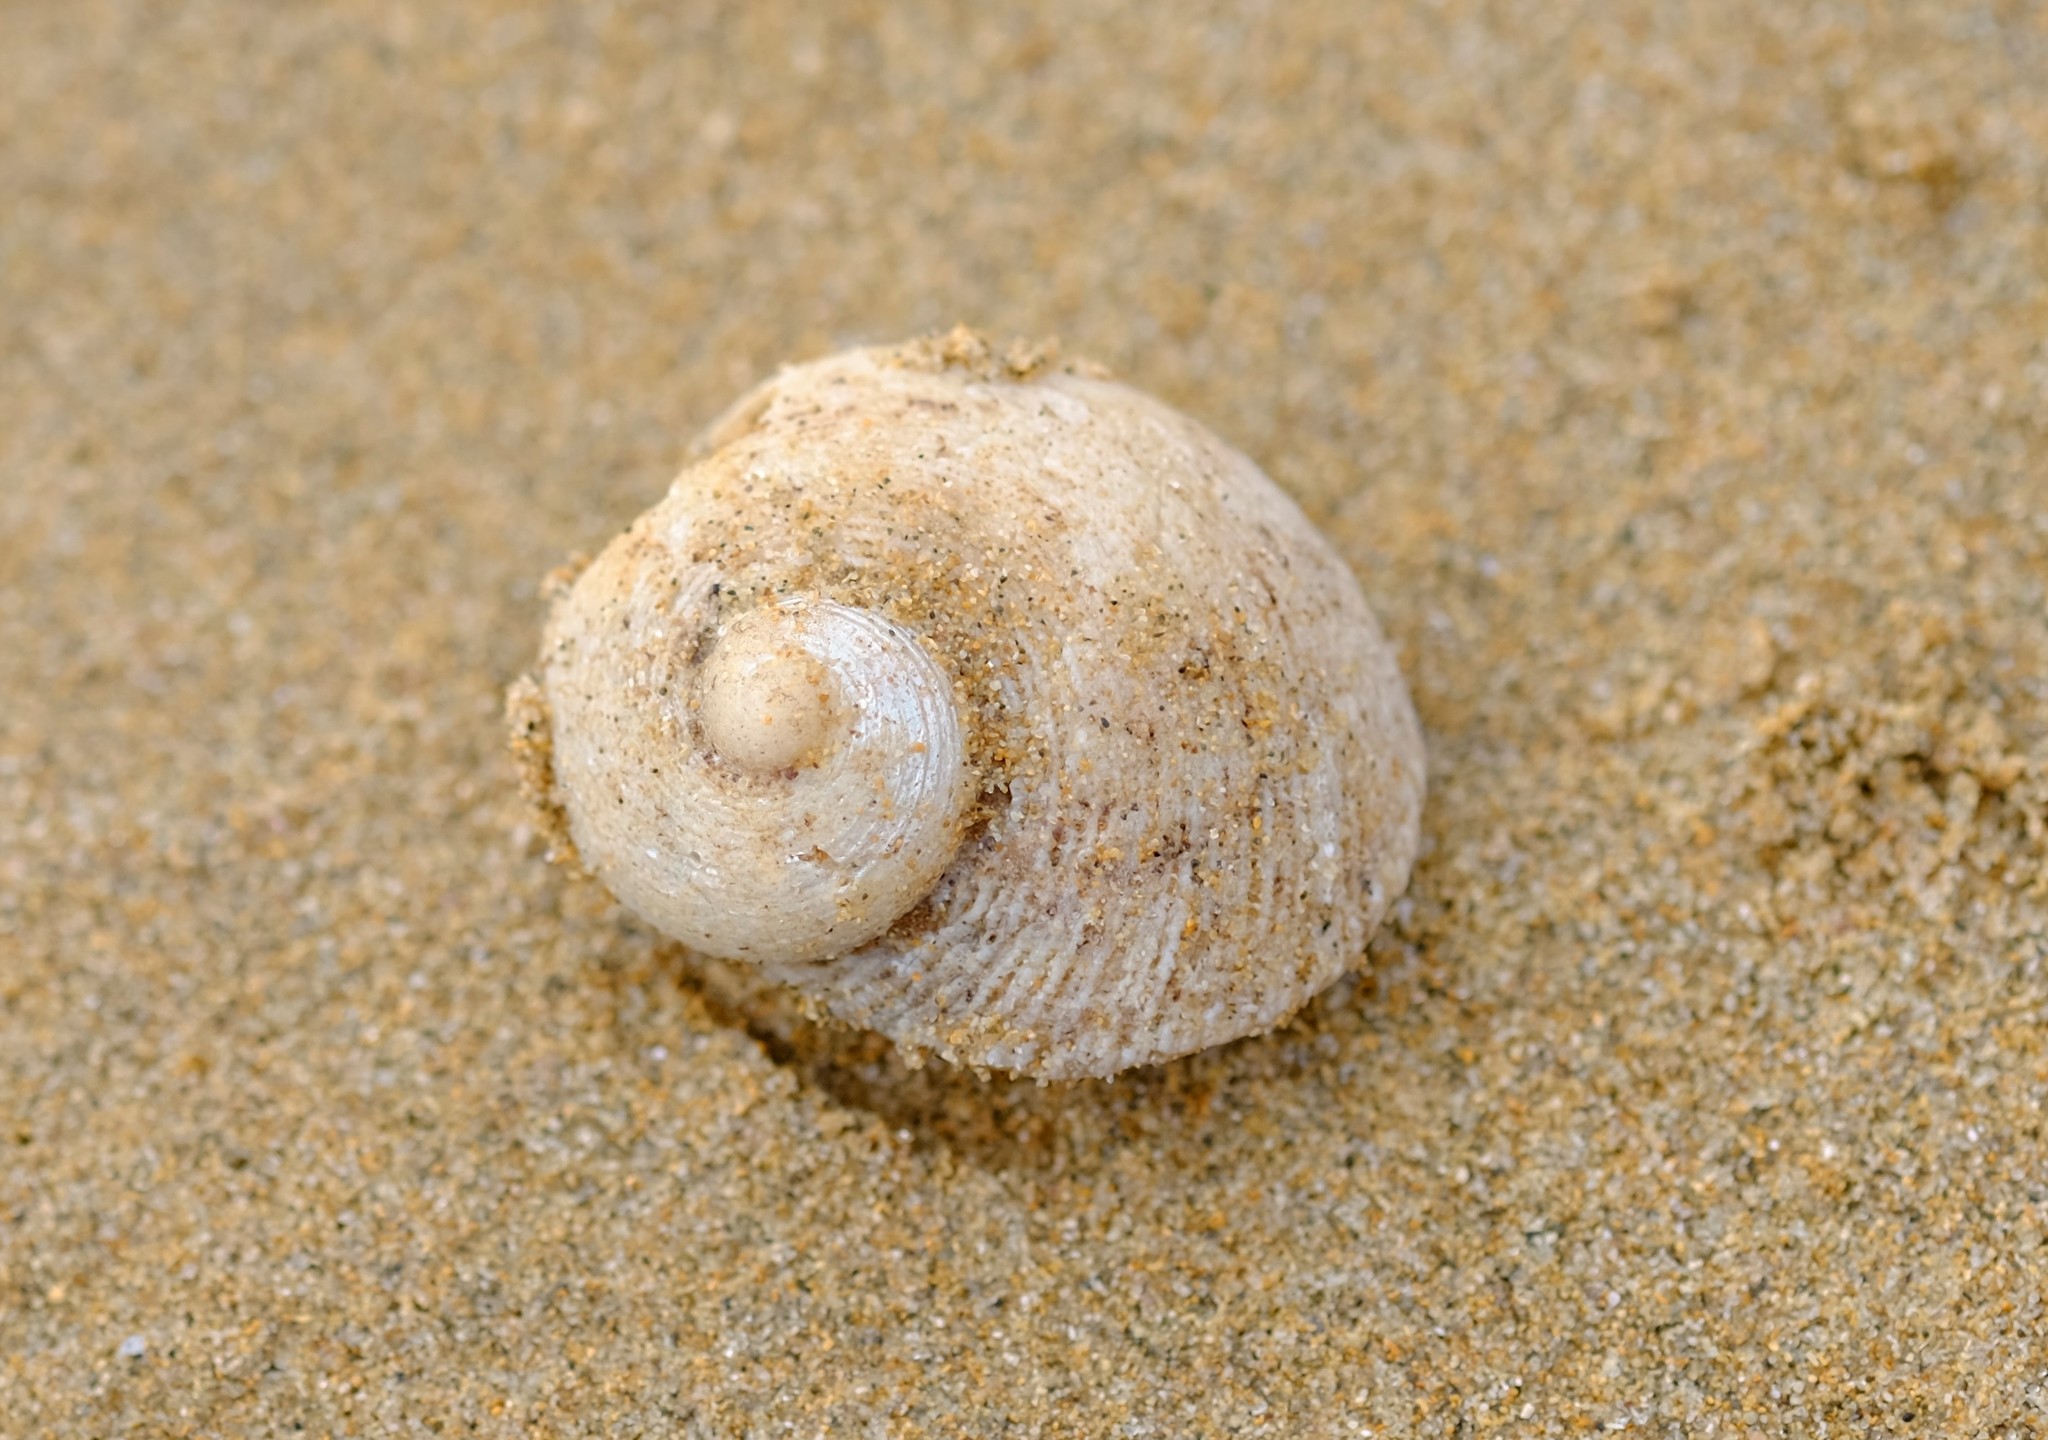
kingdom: Animalia
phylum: Mollusca
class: Gastropoda
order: Seguenziida
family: Chilodontaidae
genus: Granata
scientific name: Granata imbricata
